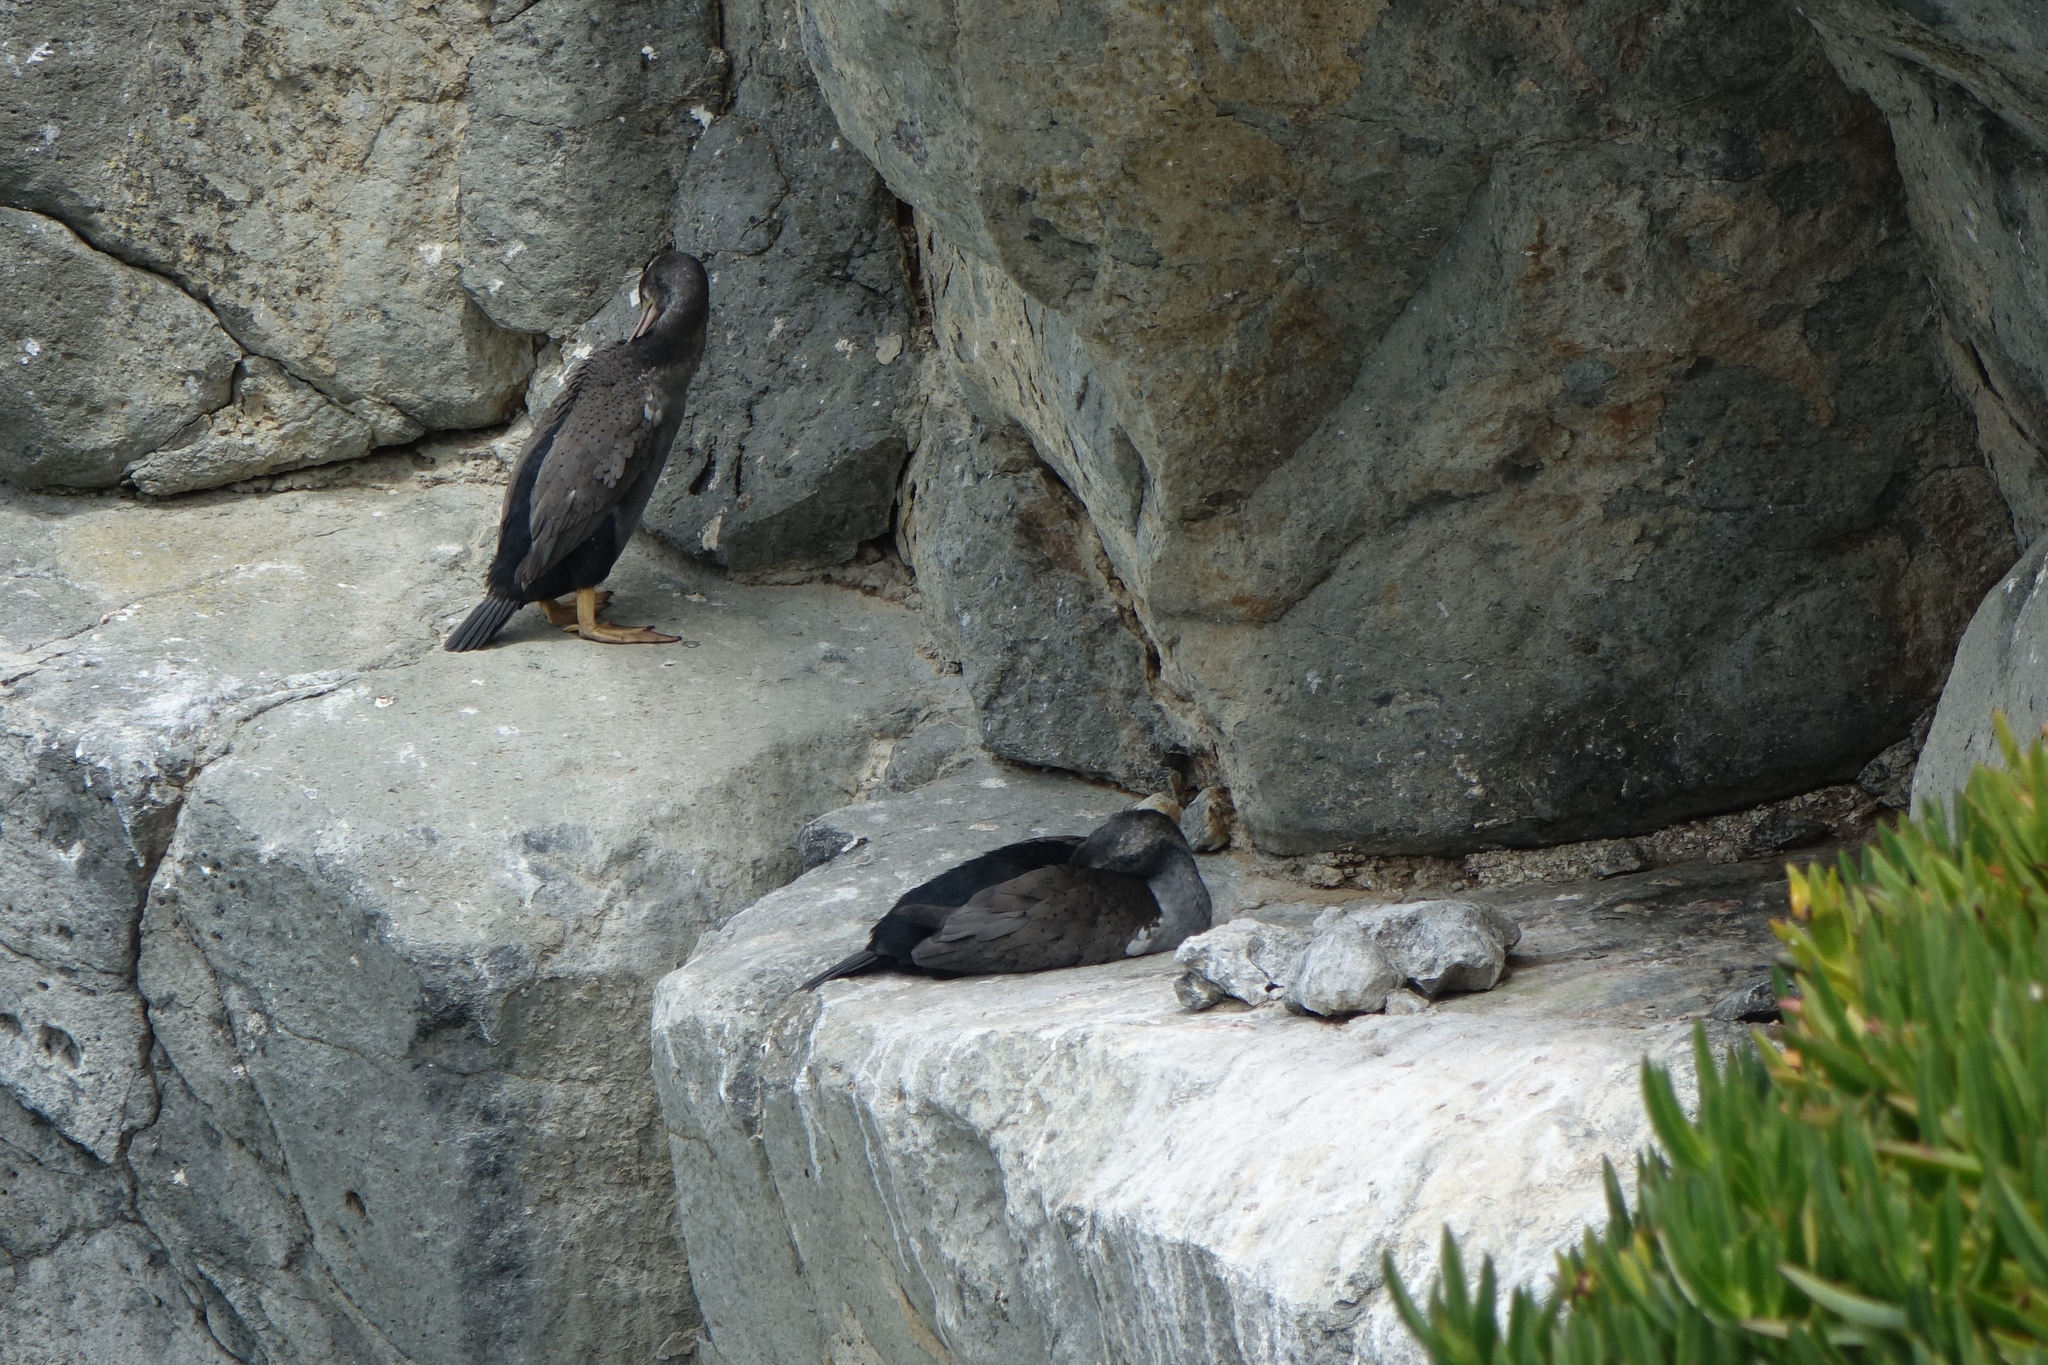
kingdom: Animalia
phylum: Chordata
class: Aves
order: Suliformes
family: Phalacrocoracidae
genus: Phalacrocorax
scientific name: Phalacrocorax punctatus
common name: Spotted shag
